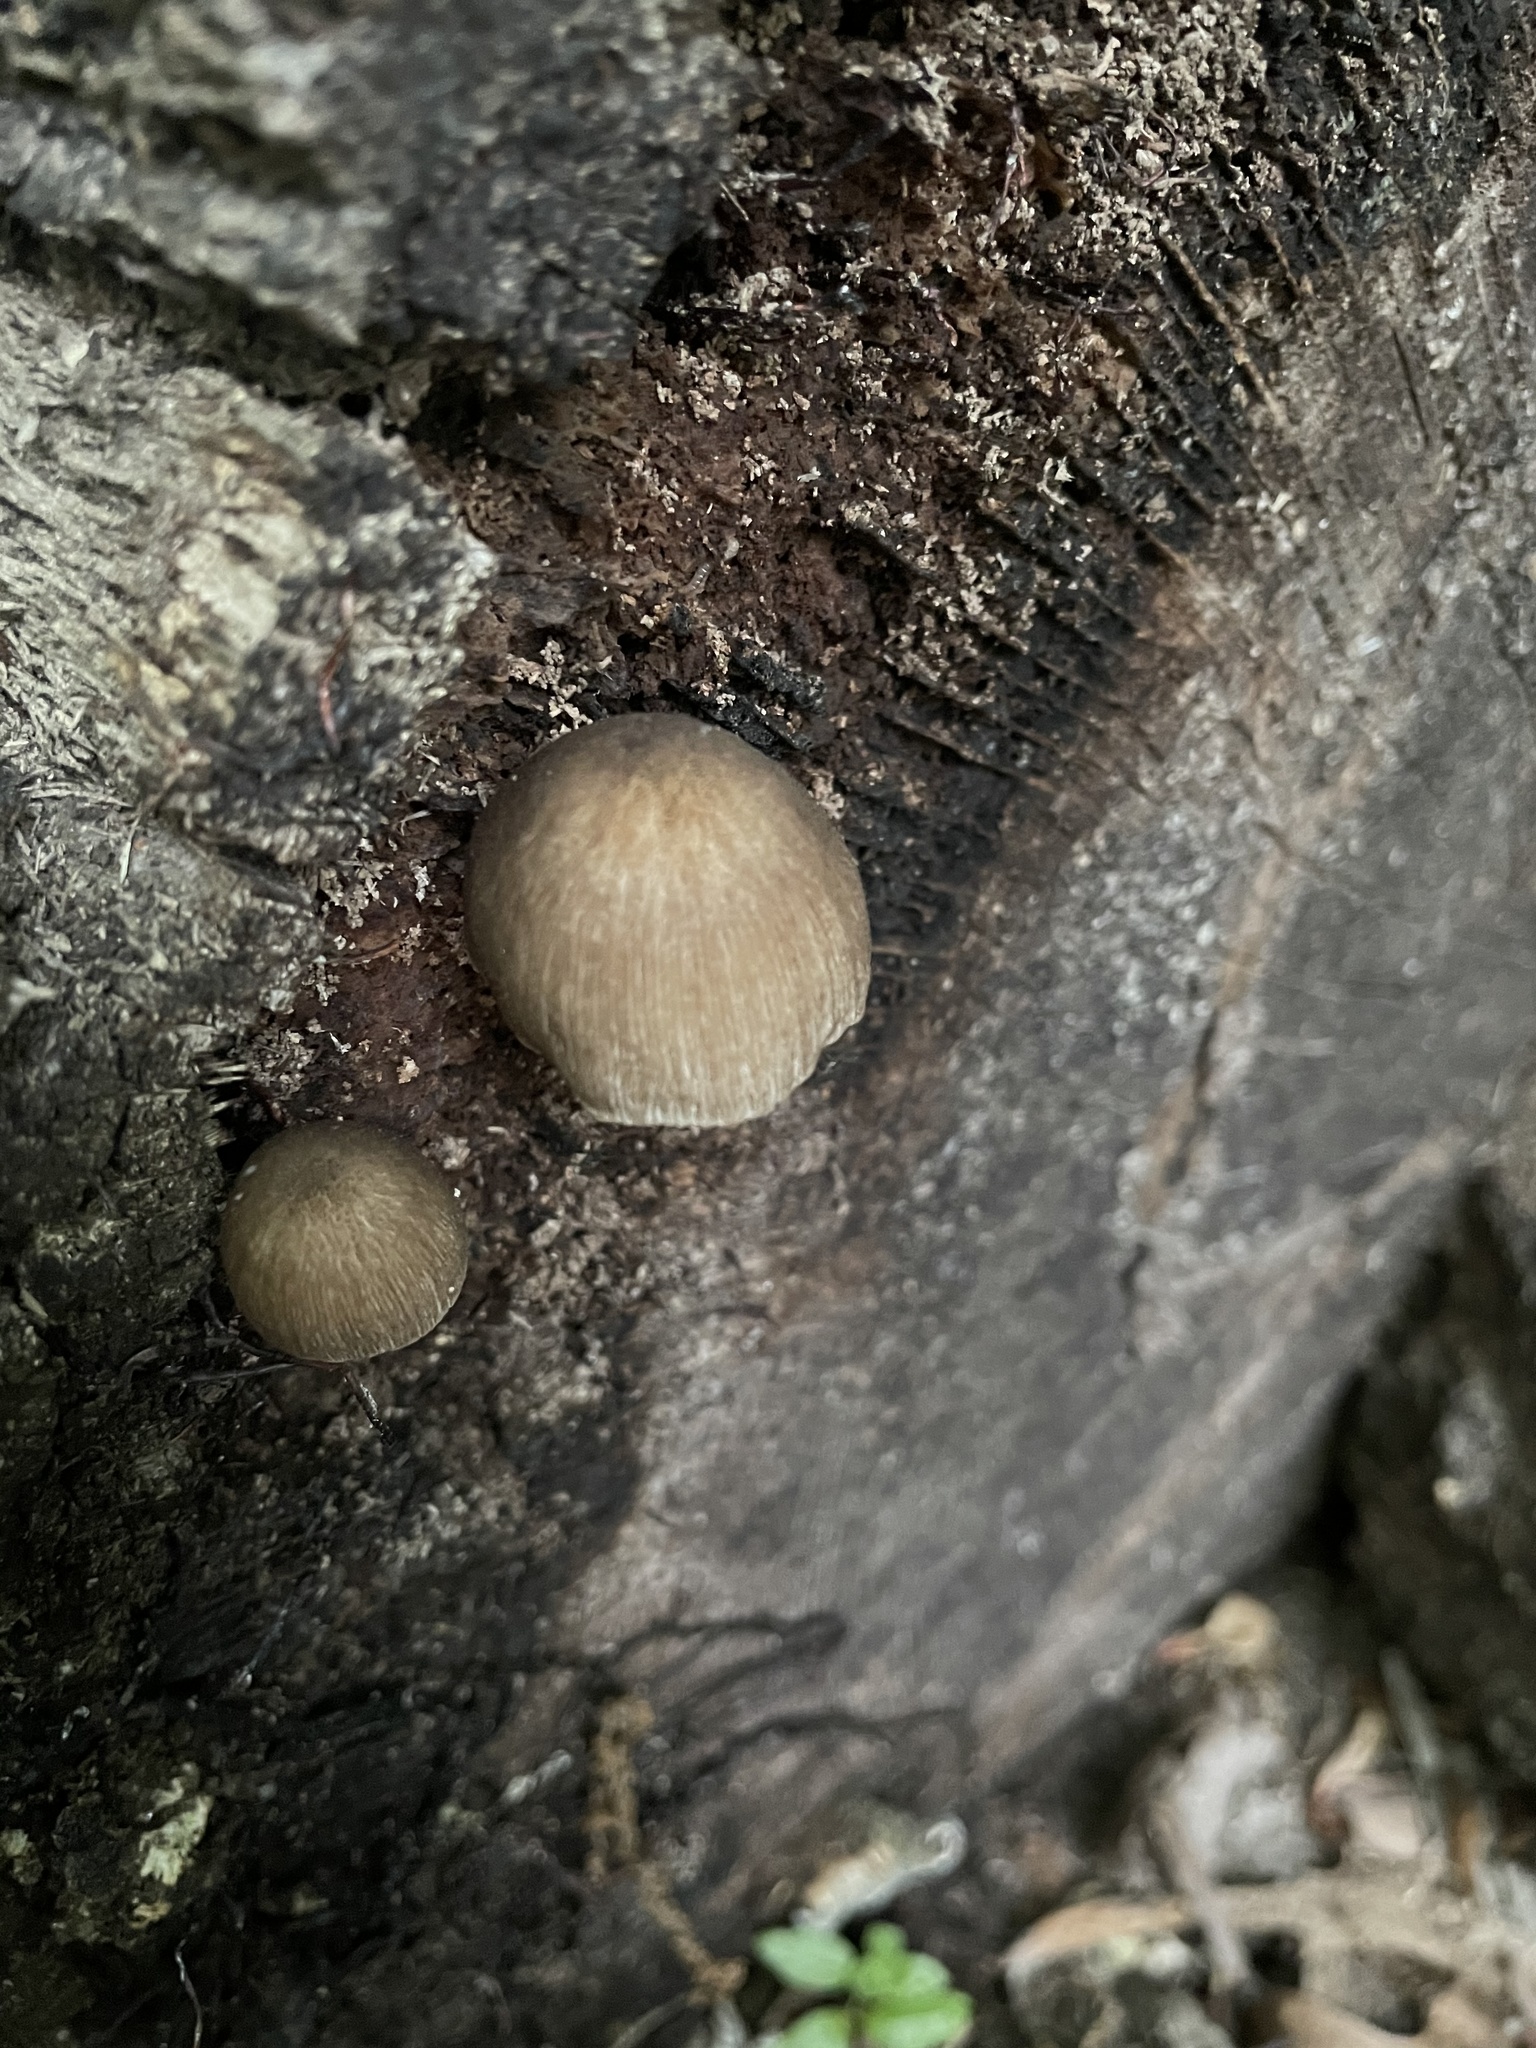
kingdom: Fungi
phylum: Basidiomycota
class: Agaricomycetes
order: Agaricales
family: Pluteaceae
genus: Pluteus
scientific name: Pluteus longistriatus
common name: Pleated pluteus
